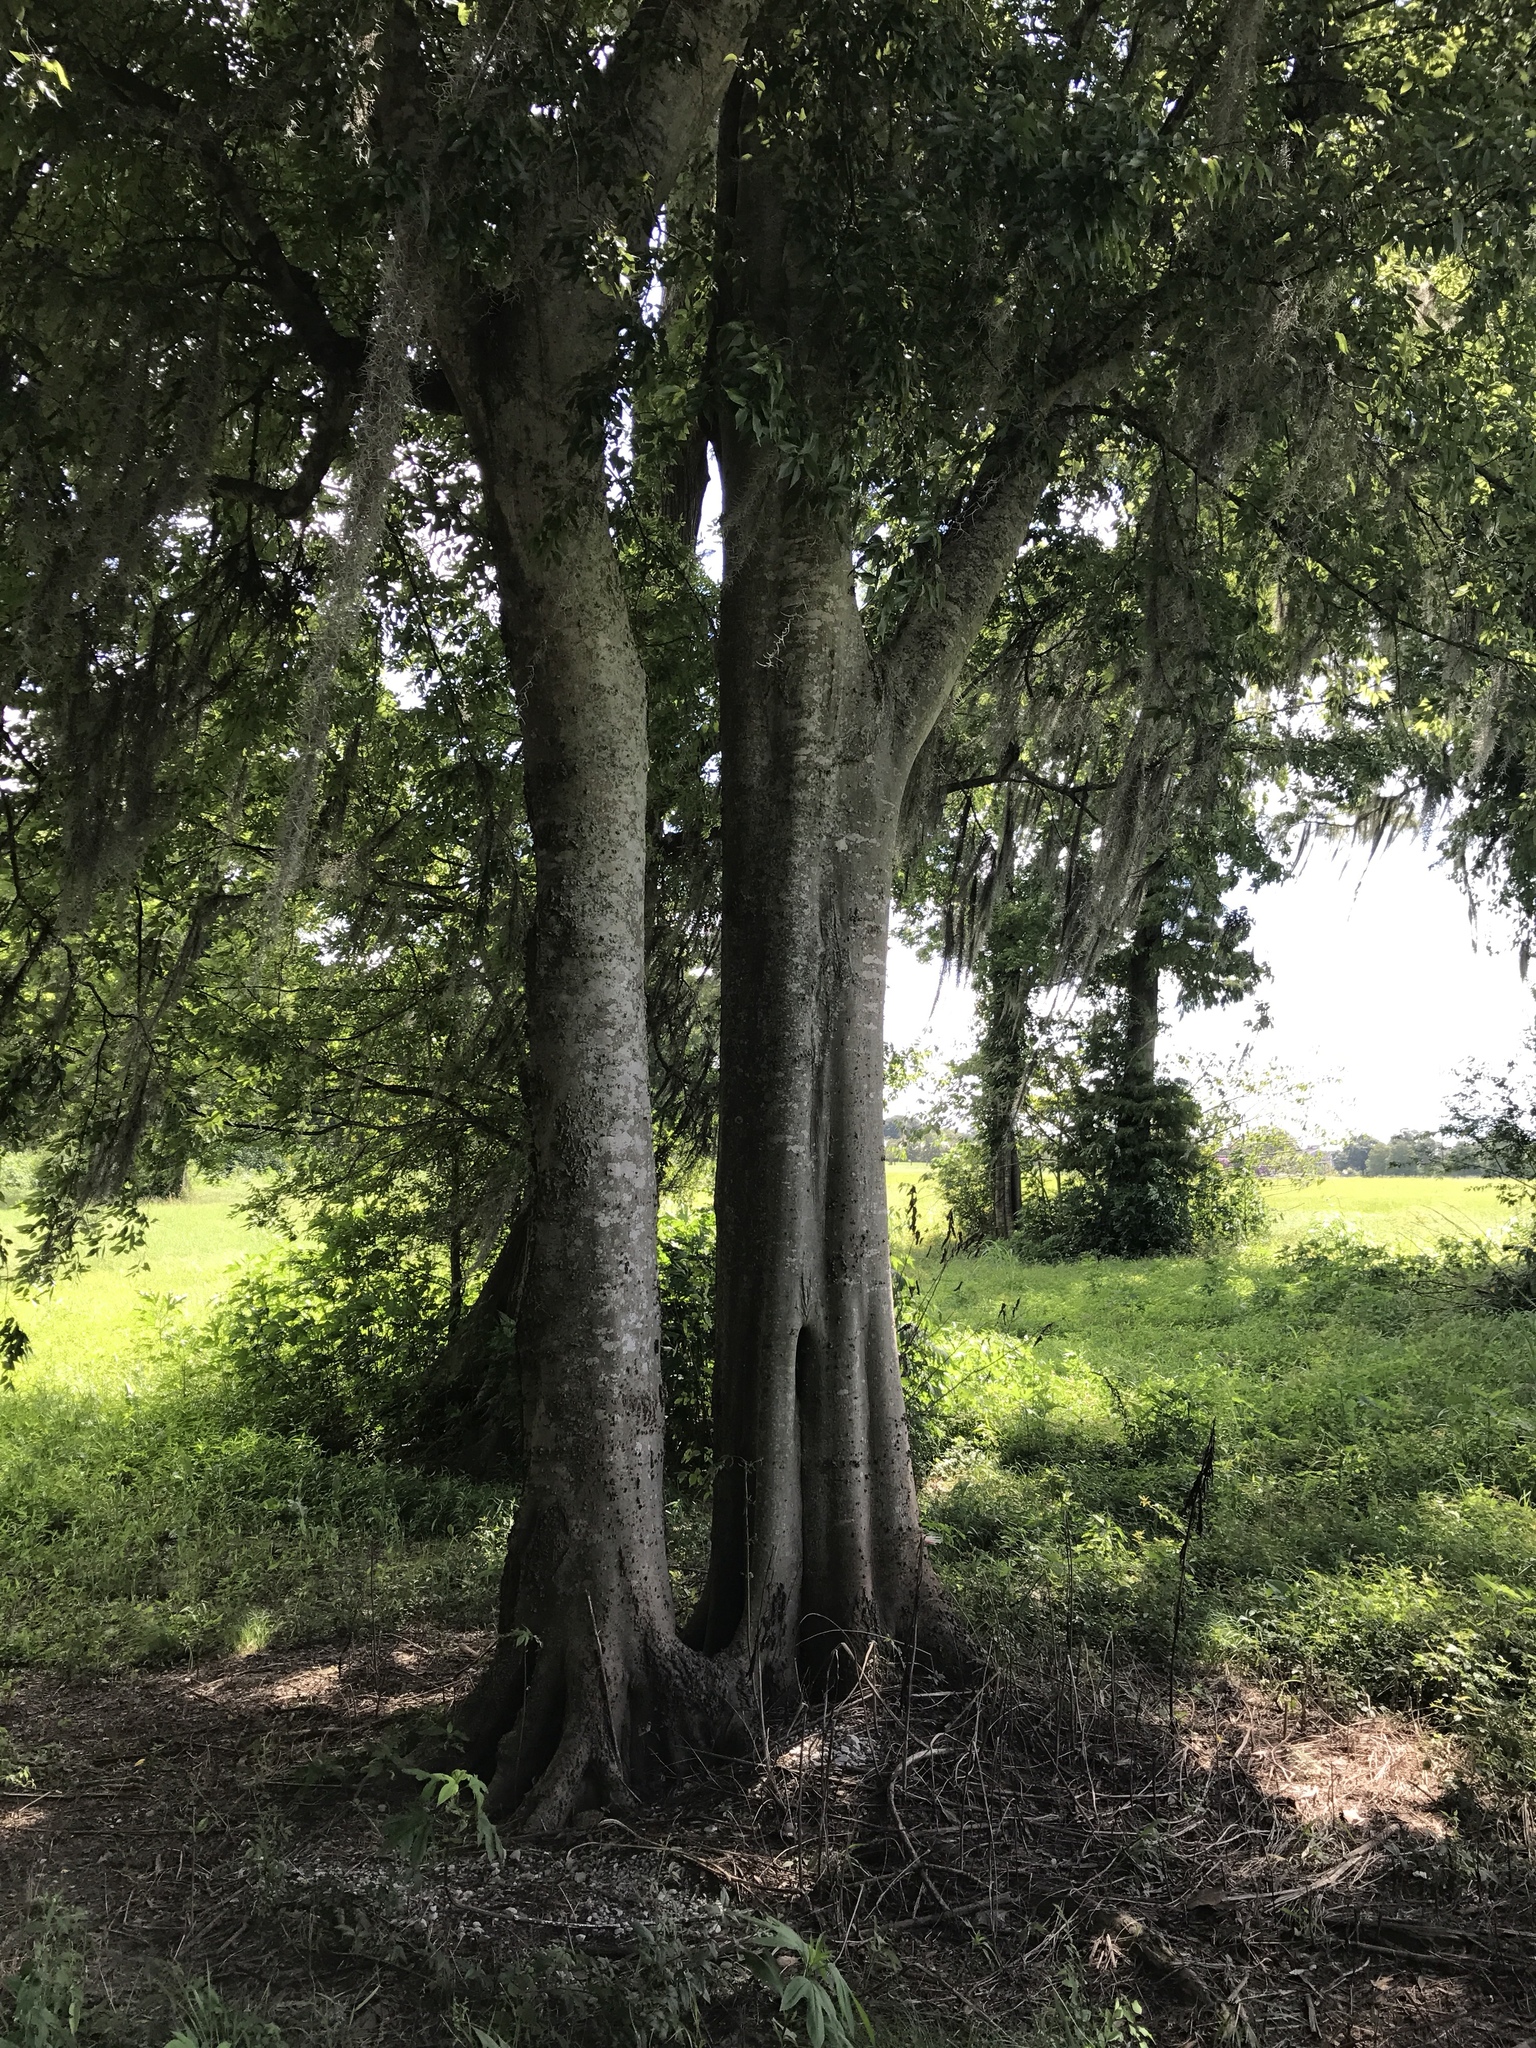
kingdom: Plantae
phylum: Tracheophyta
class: Magnoliopsida
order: Rosales
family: Cannabaceae
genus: Celtis
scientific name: Celtis laevigata
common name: Sugarberry
